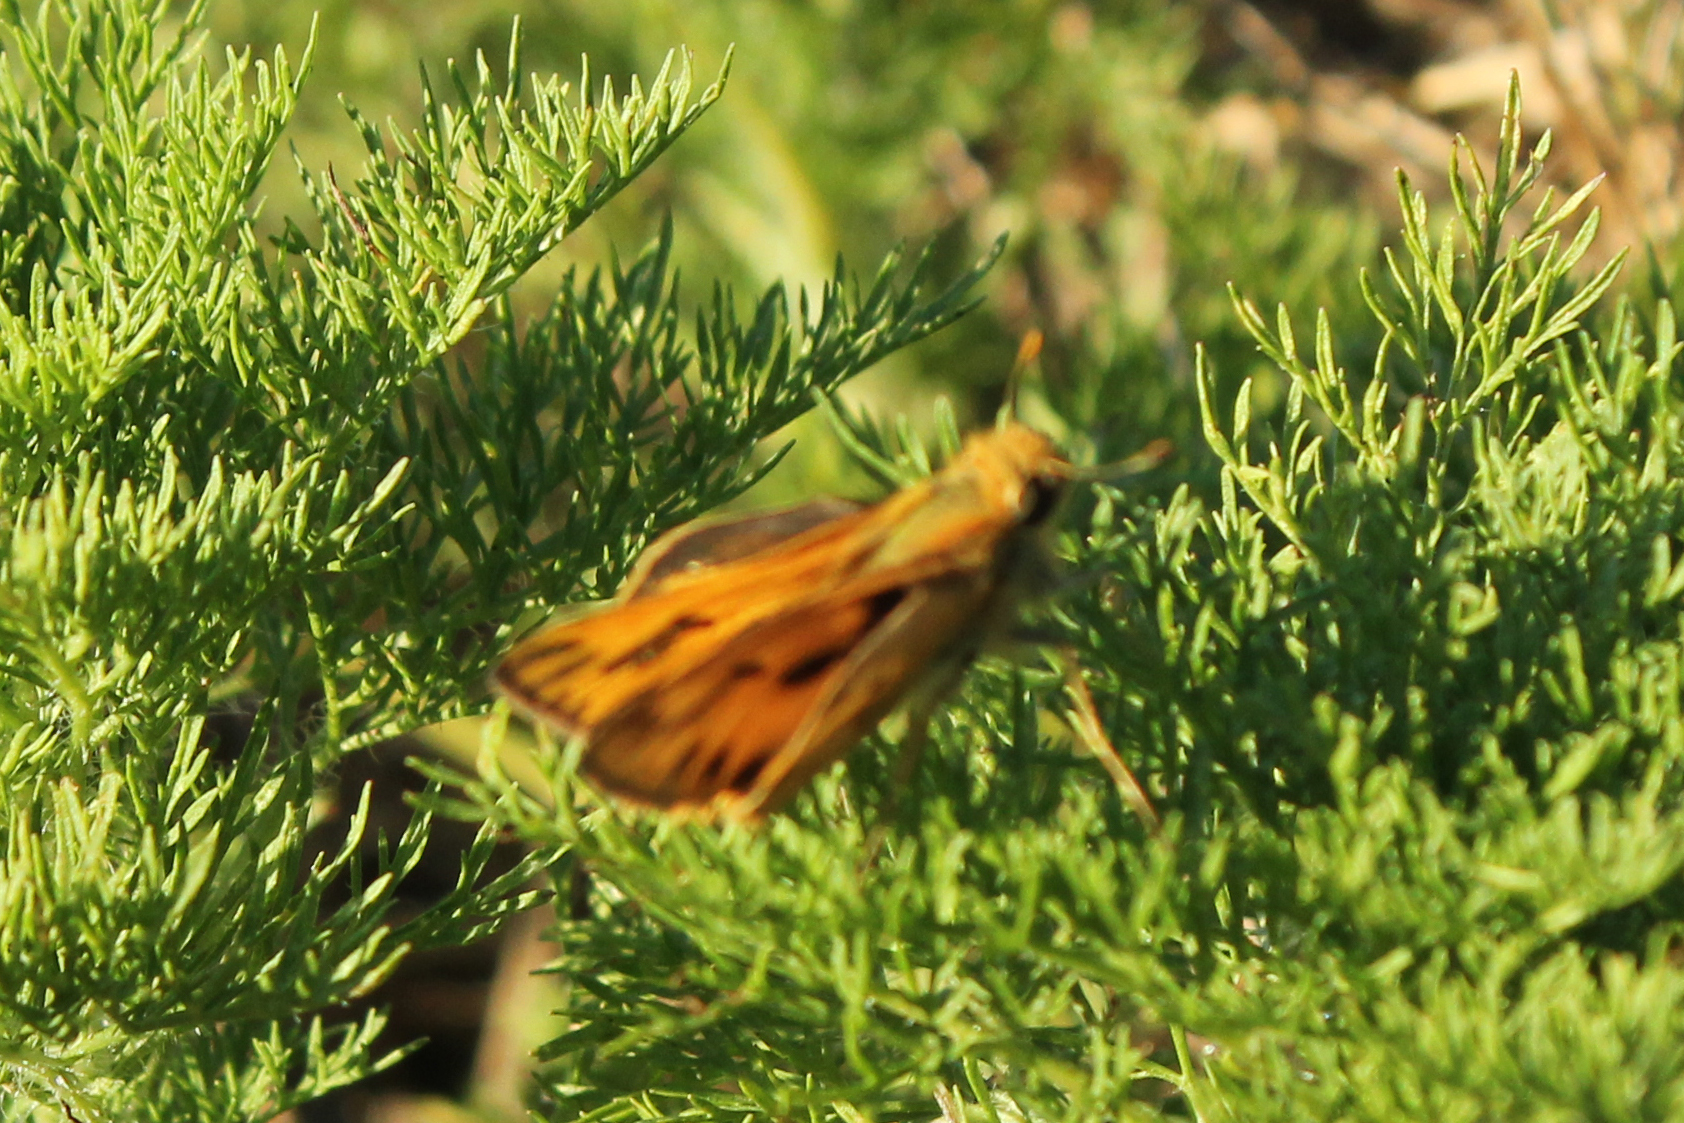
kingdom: Animalia
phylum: Arthropoda
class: Insecta
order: Lepidoptera
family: Hesperiidae
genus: Hylephila
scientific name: Hylephila phyleus
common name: Fiery skipper
